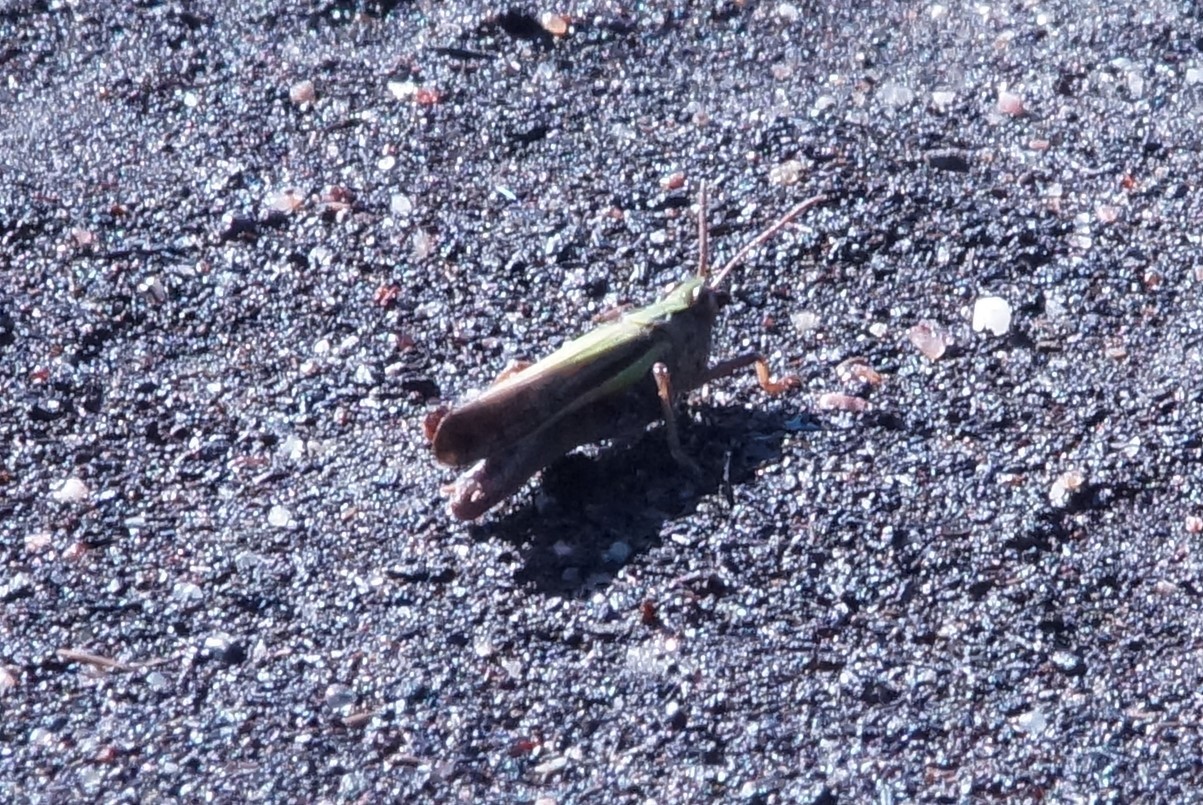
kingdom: Animalia
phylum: Arthropoda
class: Insecta
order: Orthoptera
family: Acrididae
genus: Schizobothrus
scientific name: Schizobothrus flavovittatus
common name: Disappearing grasshopper
